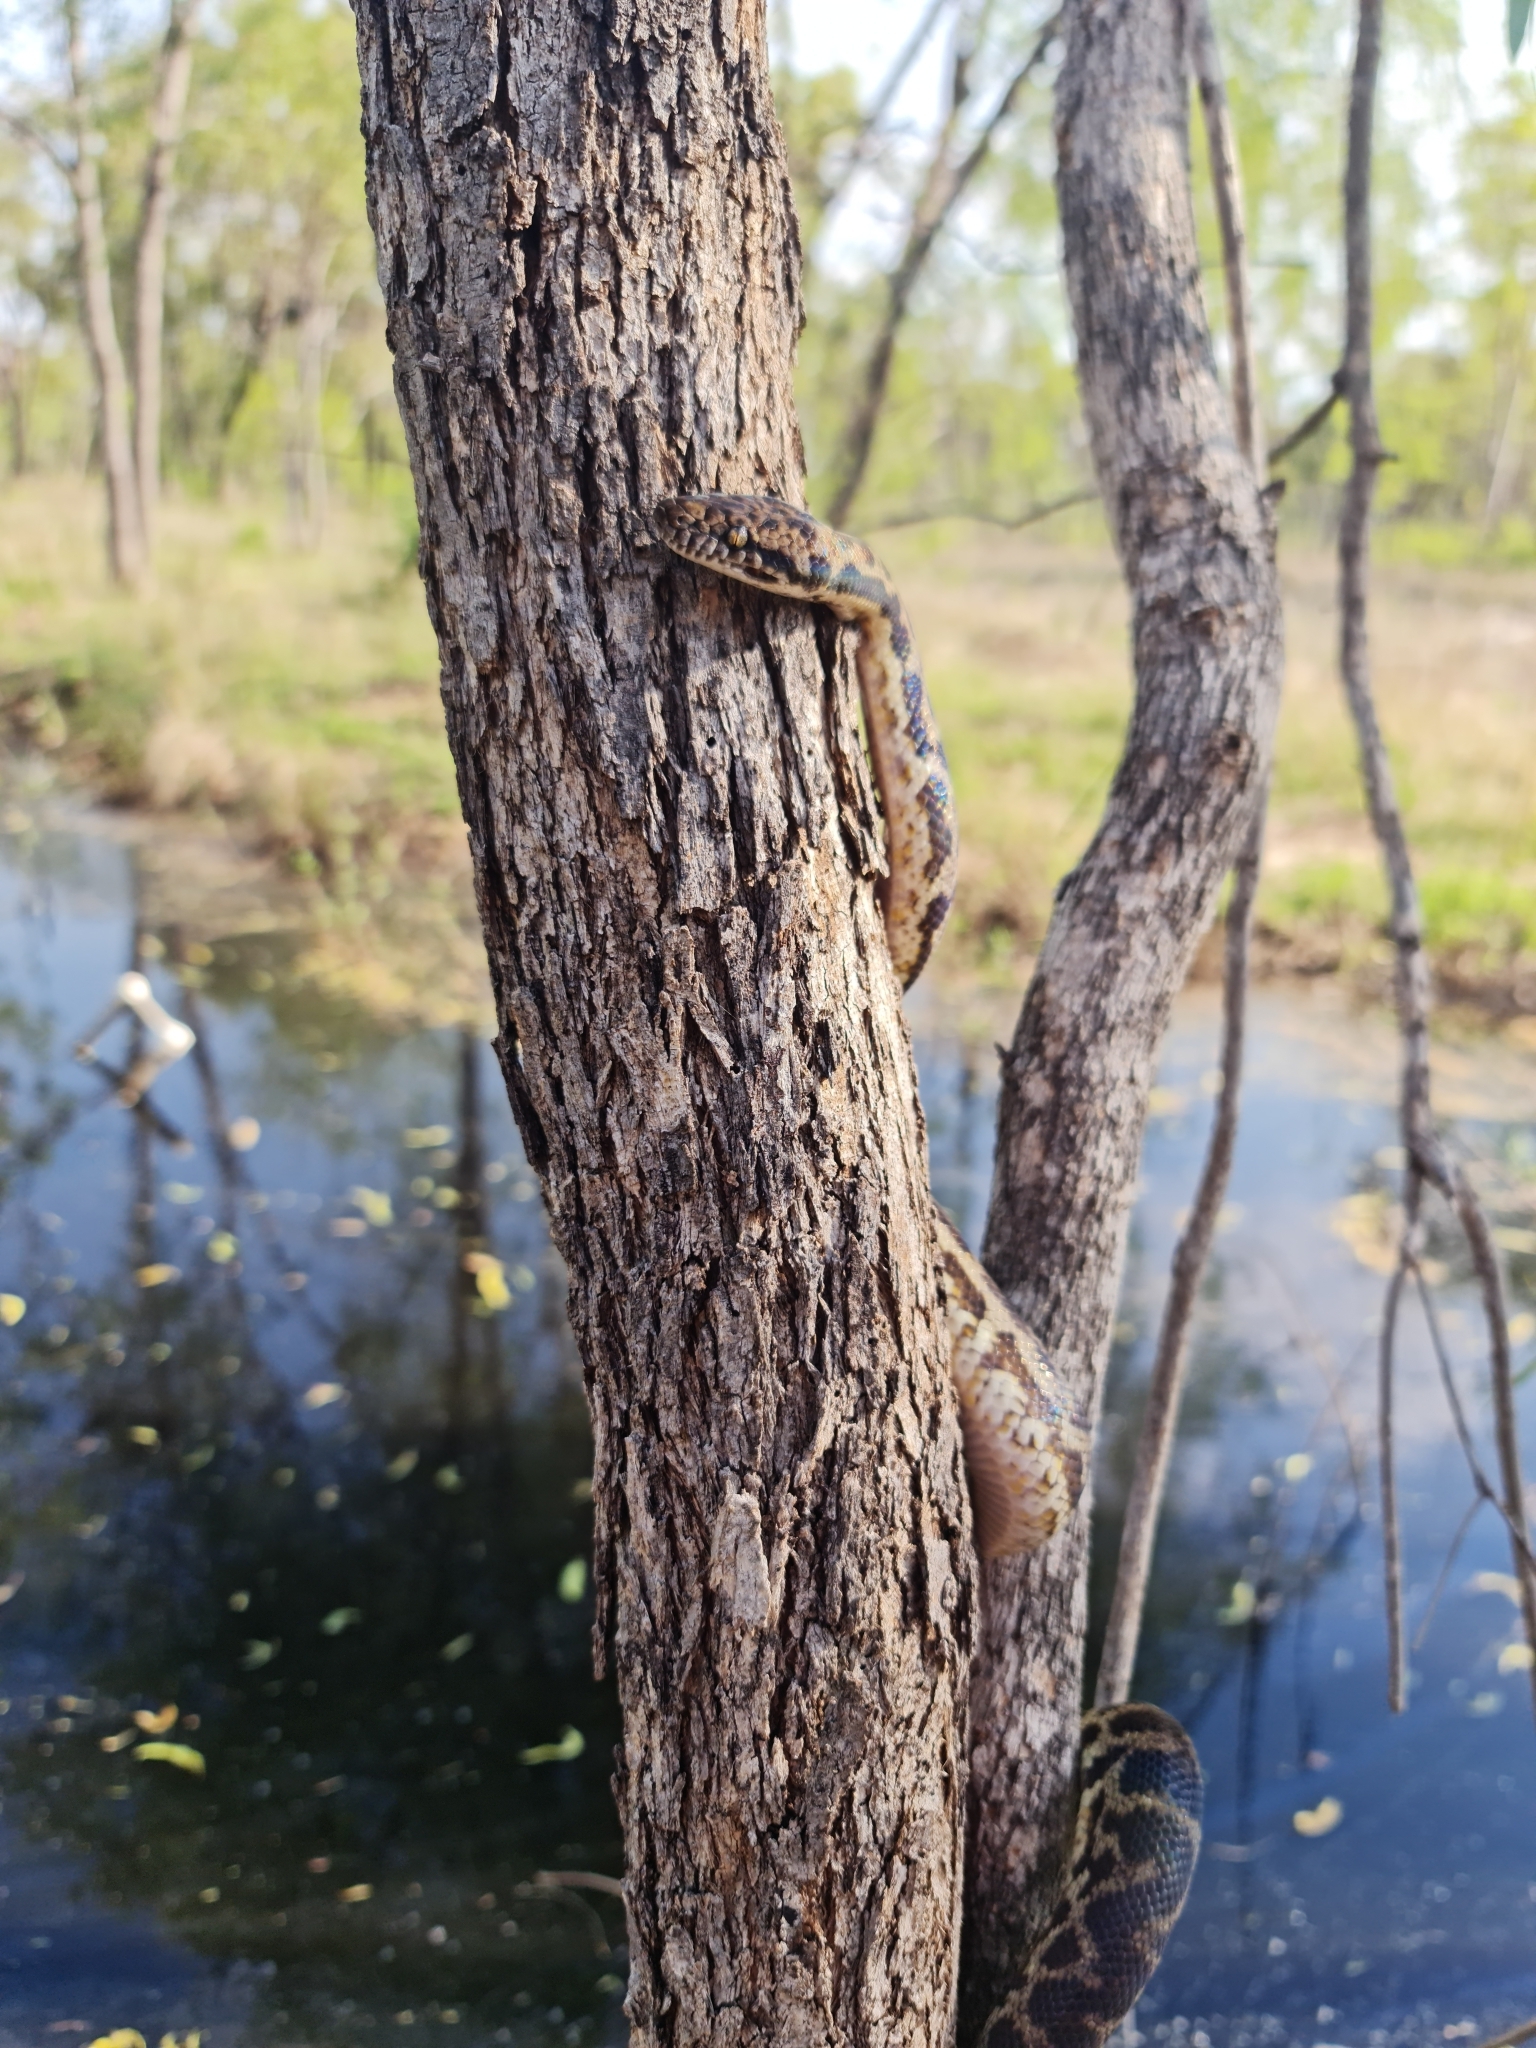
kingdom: Animalia
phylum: Chordata
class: Squamata
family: Pythonidae
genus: Antaresia
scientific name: Antaresia maculosa
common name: Eastern childrens python
